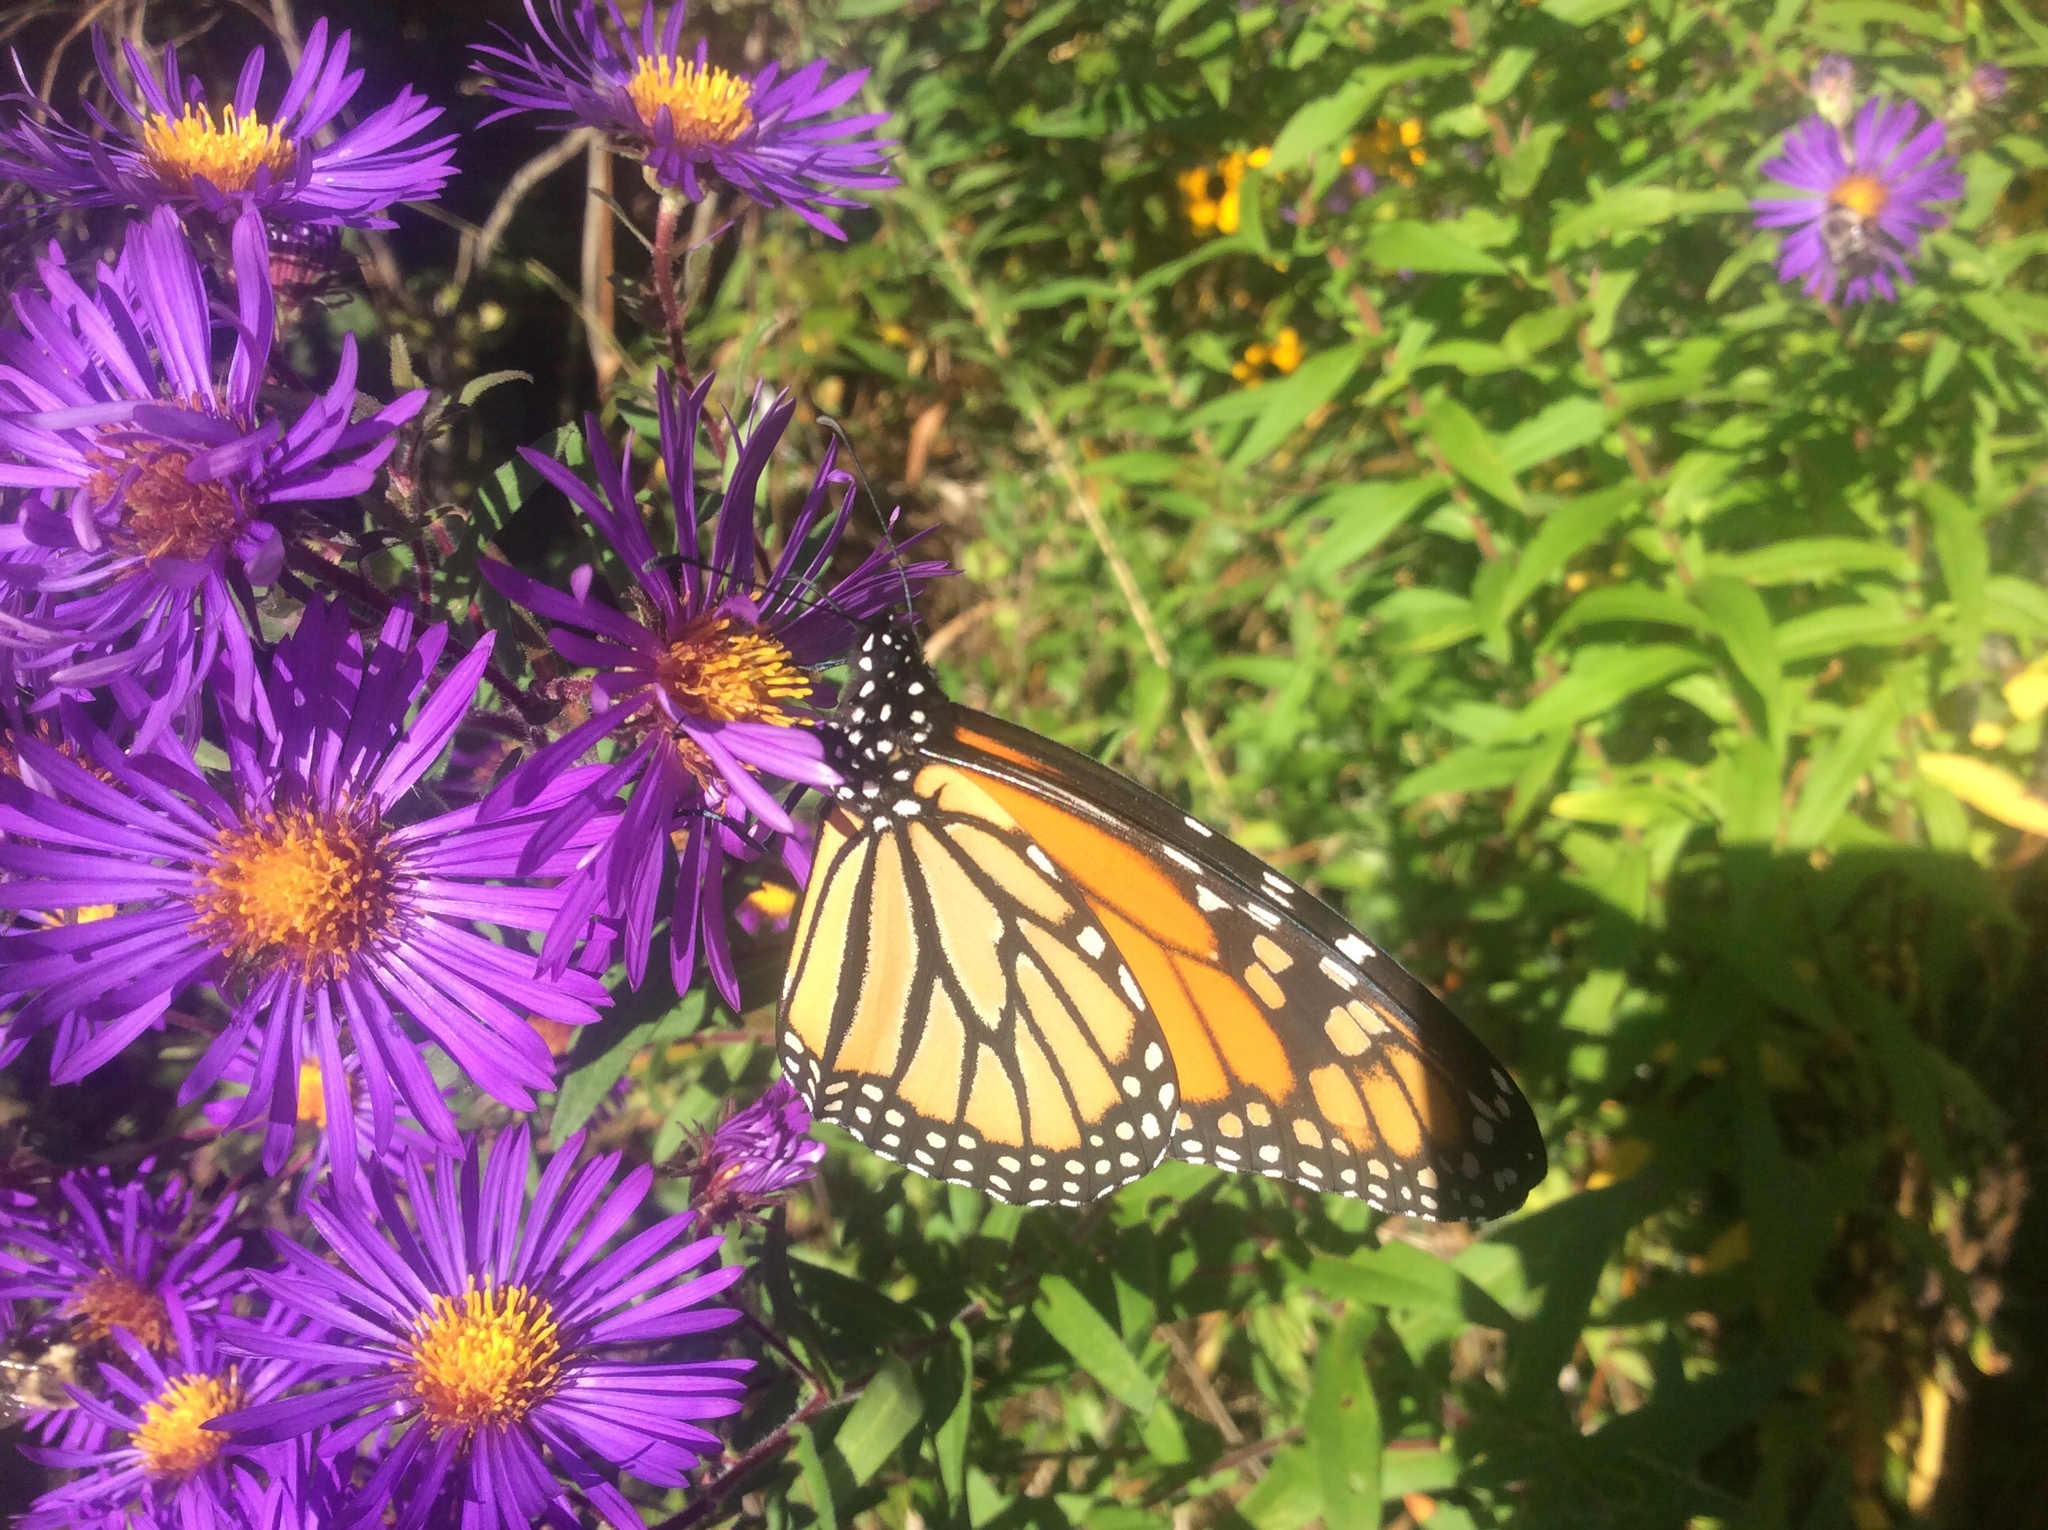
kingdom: Animalia
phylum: Arthropoda
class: Insecta
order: Lepidoptera
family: Nymphalidae
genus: Danaus
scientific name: Danaus plexippus
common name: Monarch
